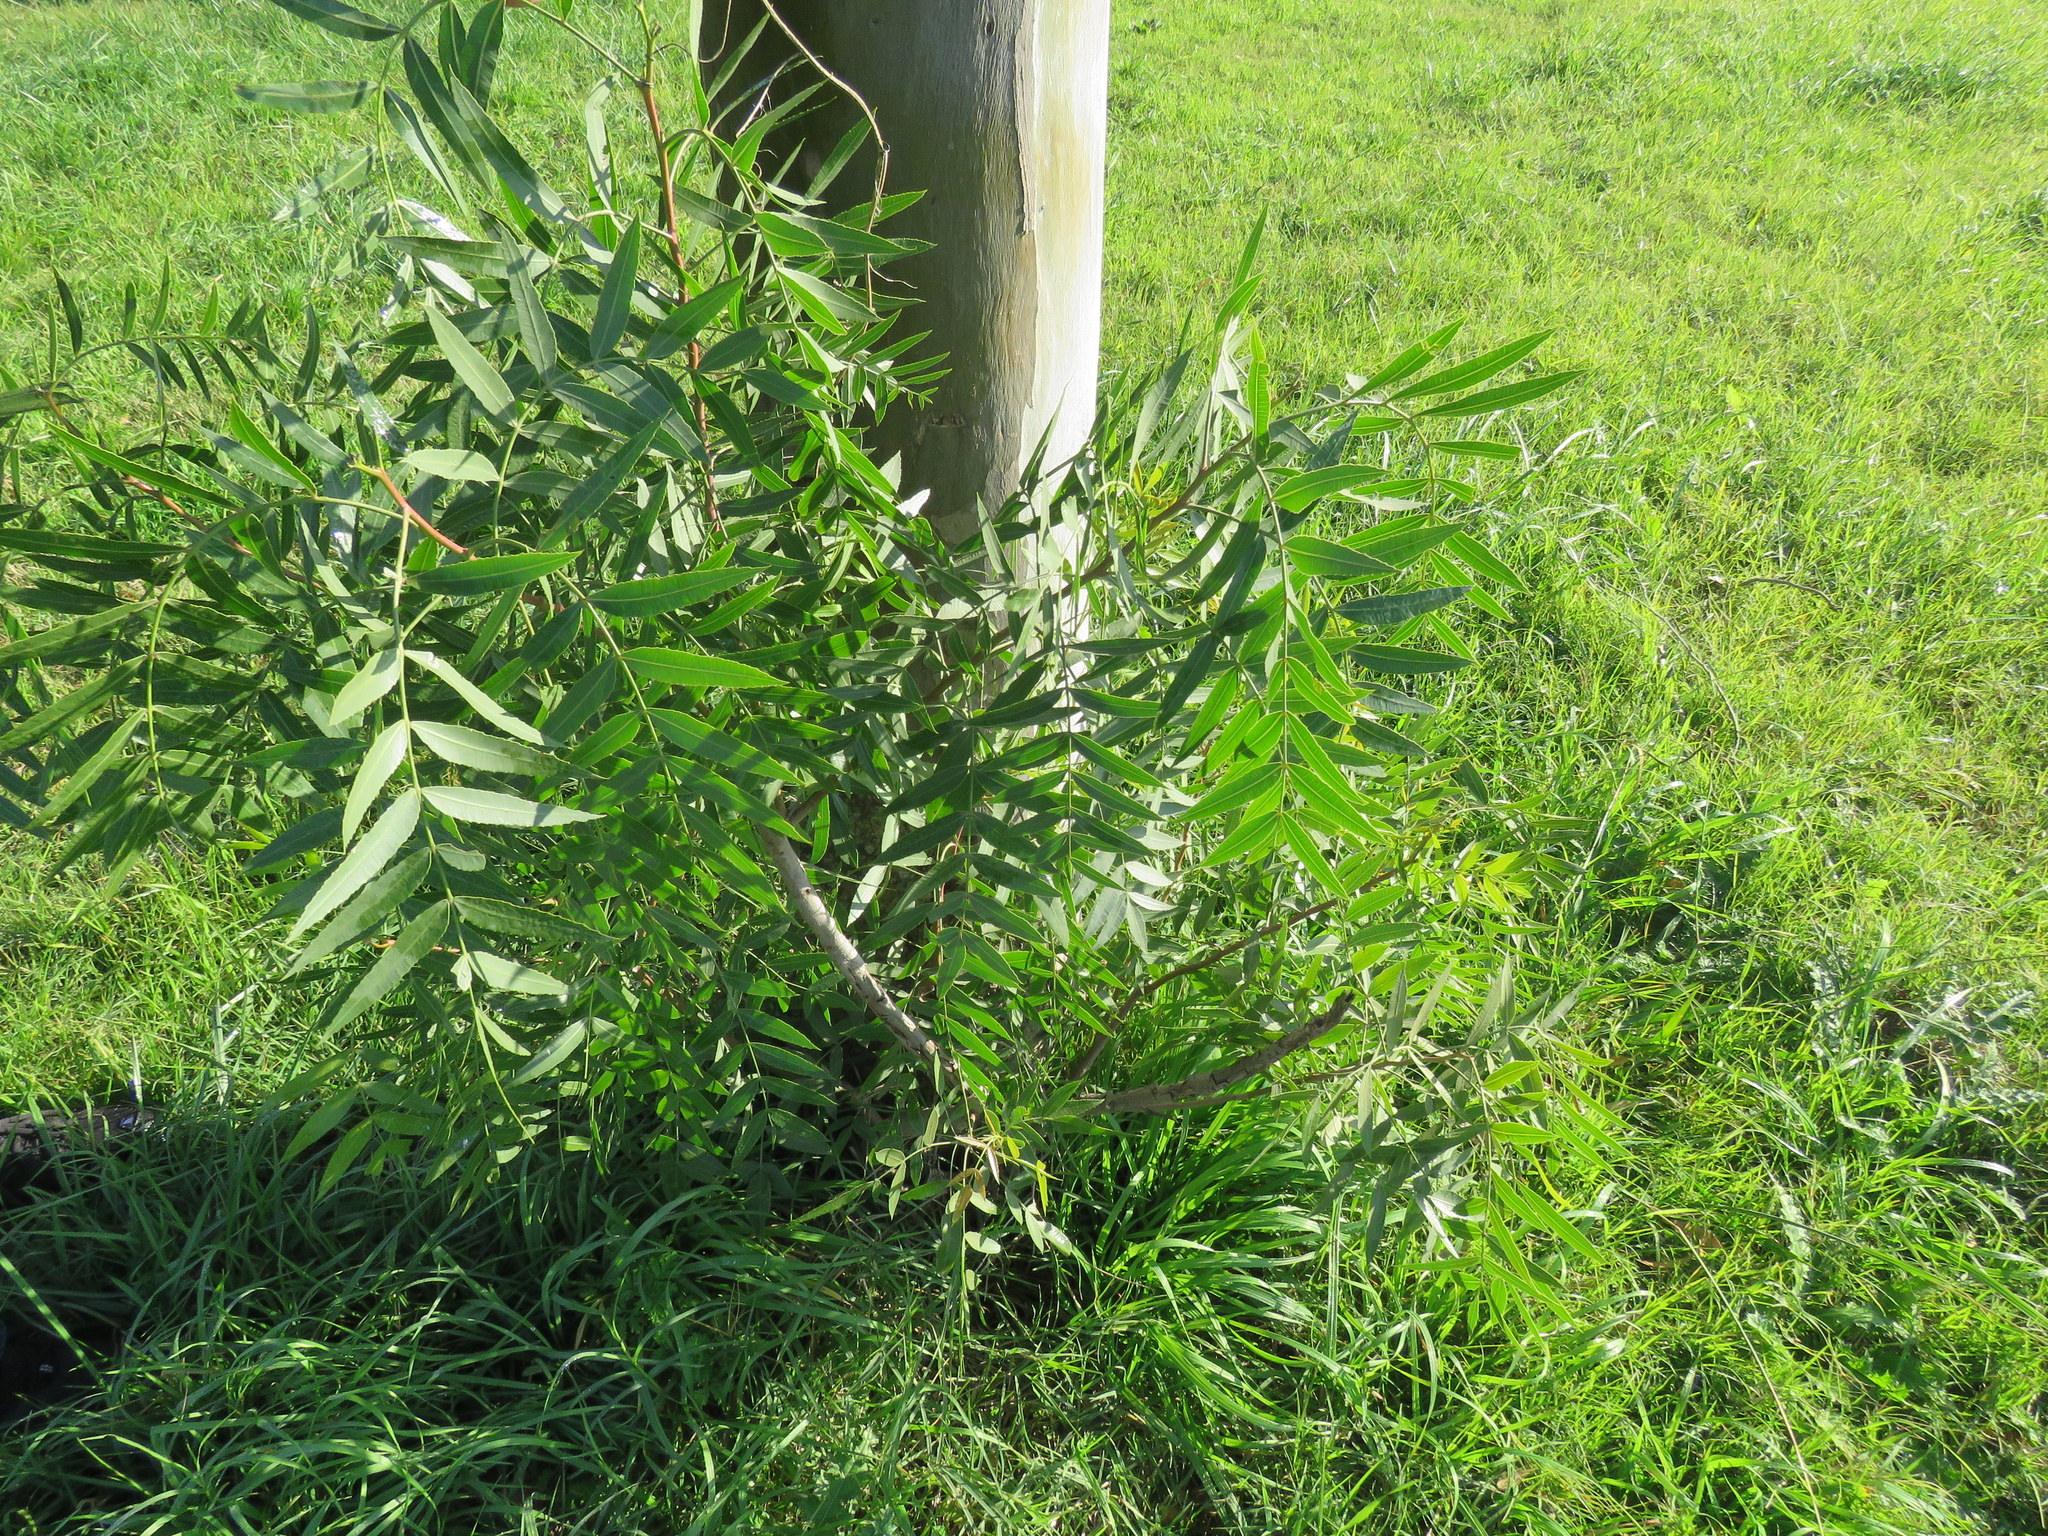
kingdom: Plantae
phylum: Tracheophyta
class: Magnoliopsida
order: Sapindales
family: Anacardiaceae
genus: Schinus
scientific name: Schinus molle
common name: Peruvian peppertree
